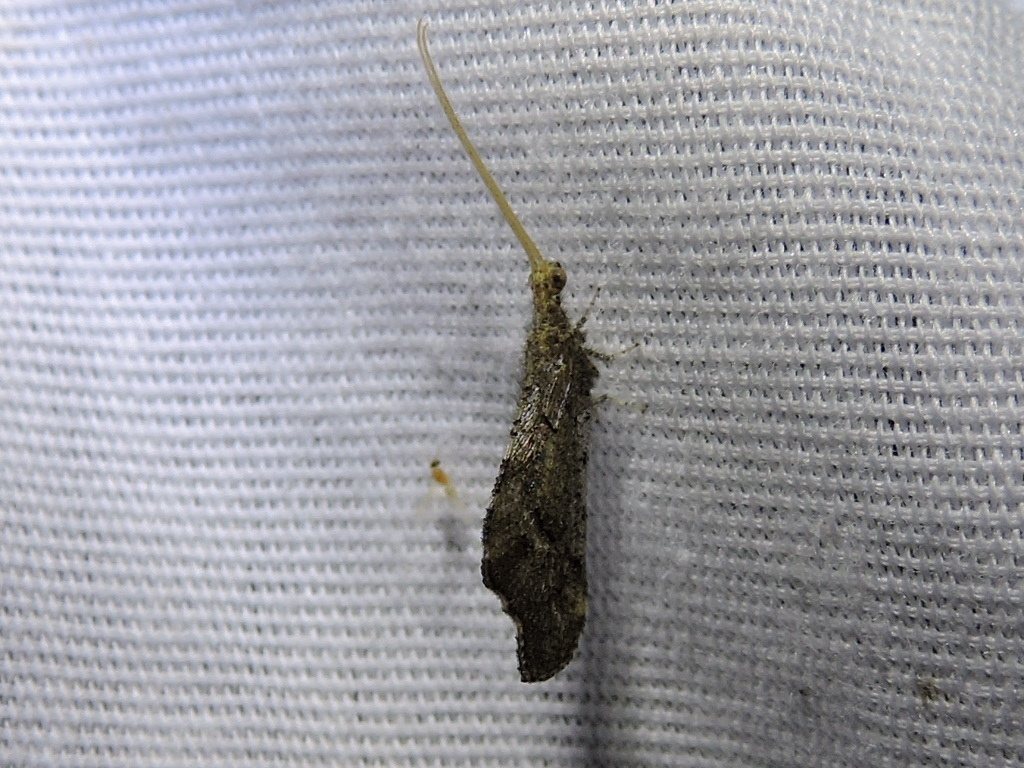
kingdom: Animalia
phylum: Arthropoda
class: Insecta
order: Neuroptera
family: Berothidae
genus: Lomamyia
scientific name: Lomamyia
